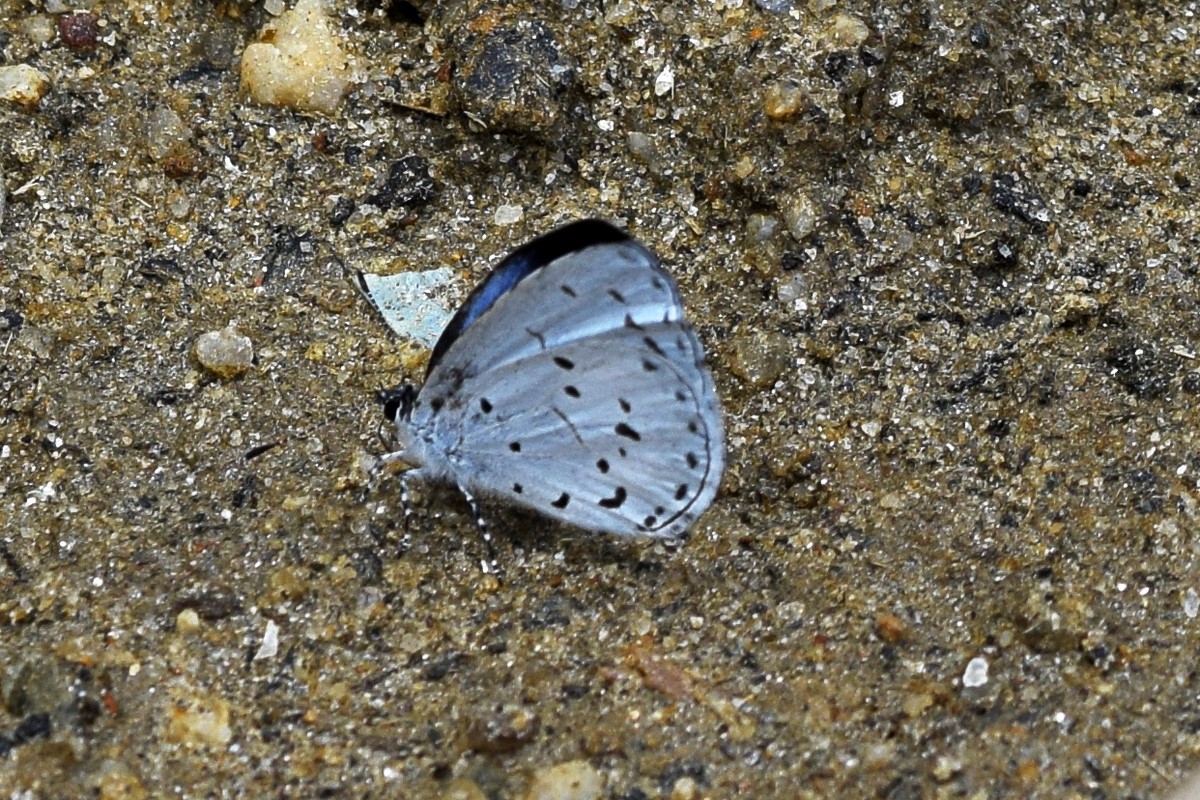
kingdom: Animalia
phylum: Arthropoda
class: Insecta
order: Lepidoptera
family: Lycaenidae
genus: Udara
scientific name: Udara albocaerulea
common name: Albocerulean
